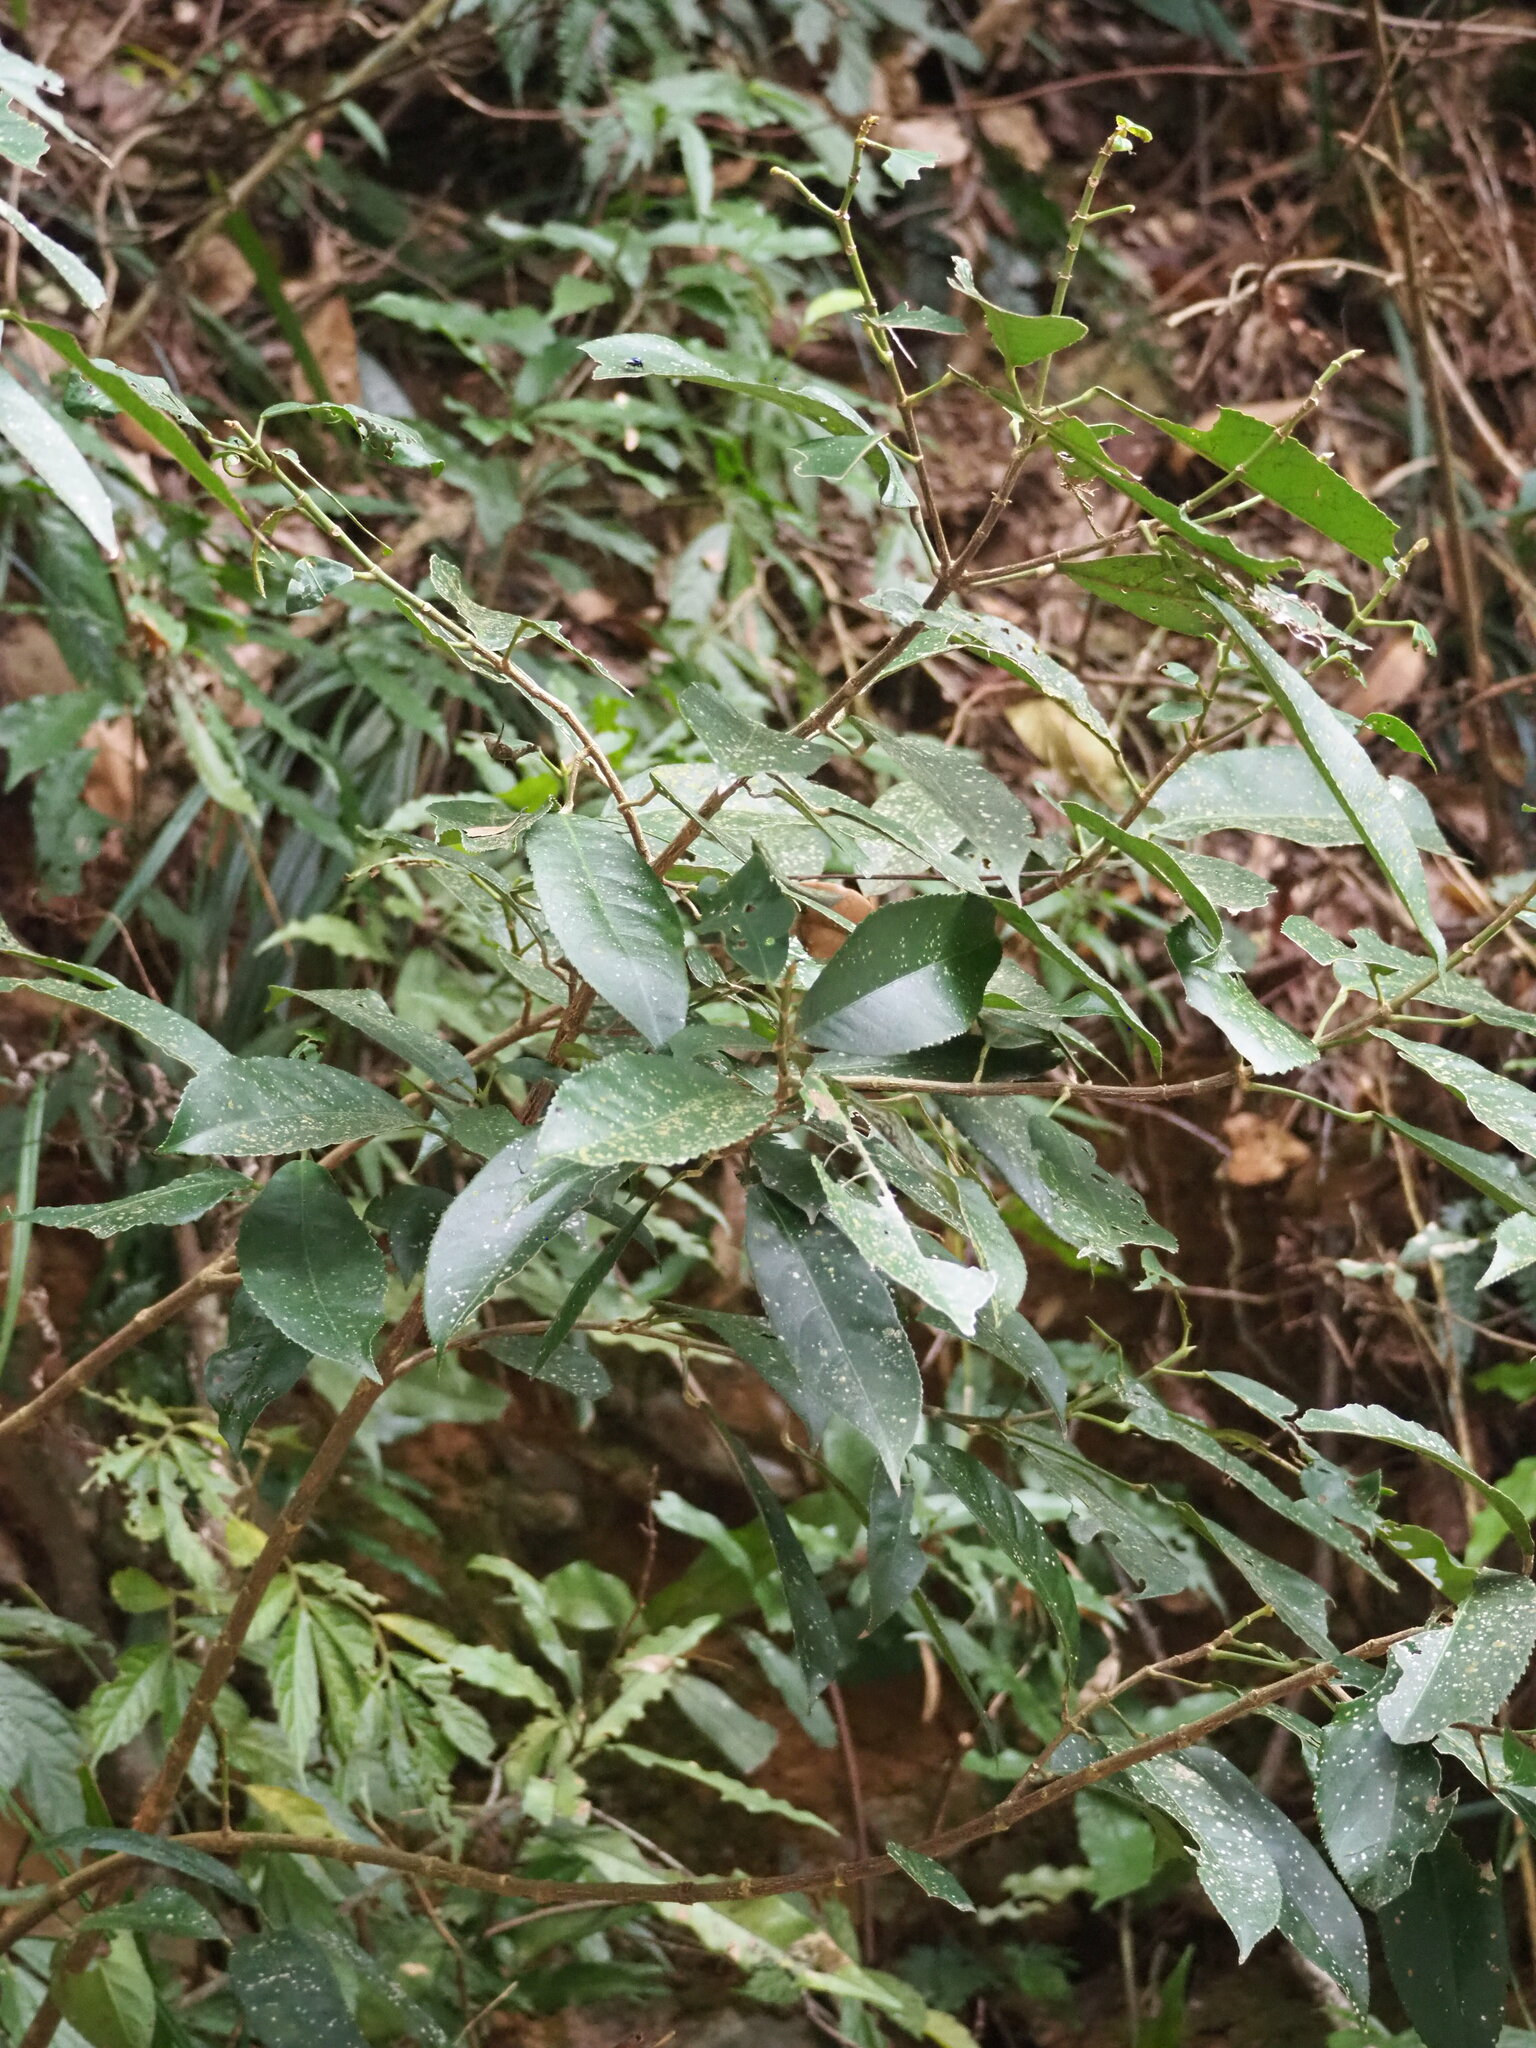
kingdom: Plantae
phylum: Tracheophyta
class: Magnoliopsida
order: Crossosomatales
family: Staphyleaceae
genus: Turpinia
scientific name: Turpinia formosana
